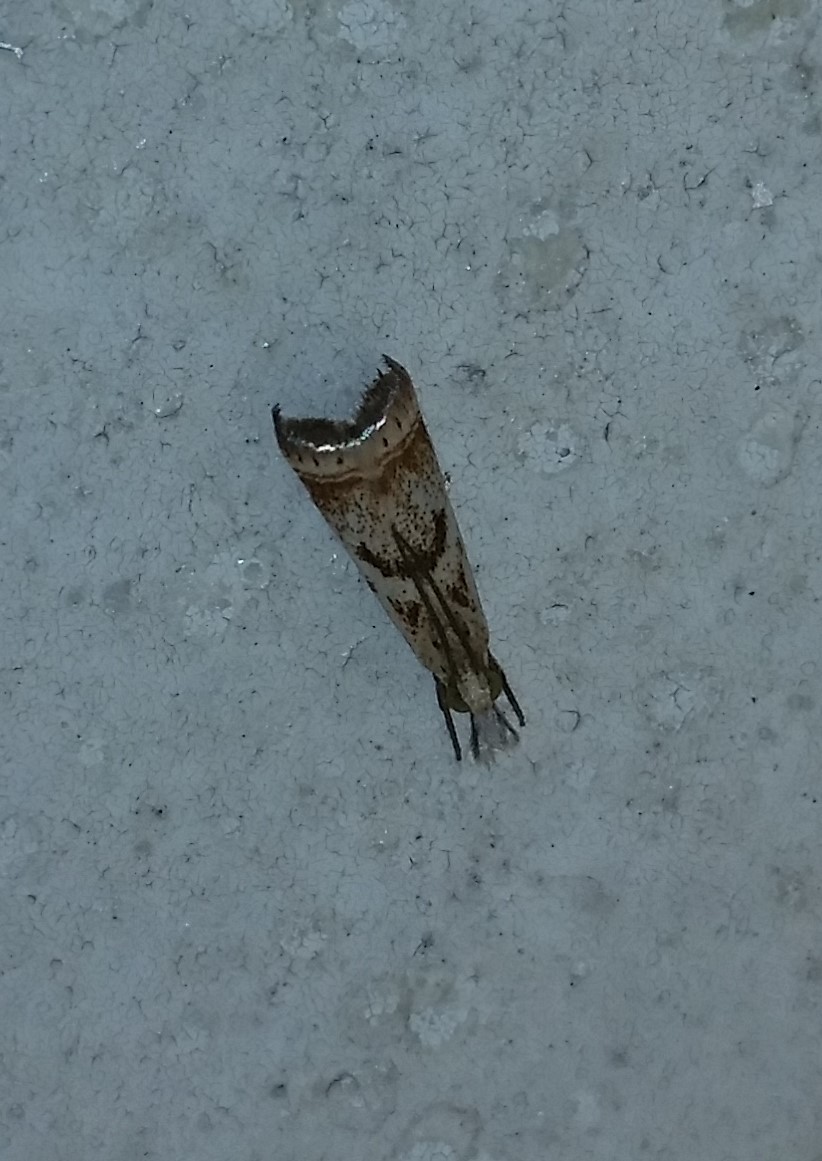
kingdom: Animalia
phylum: Arthropoda
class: Insecta
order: Lepidoptera
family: Crambidae
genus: Microcrambus
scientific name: Microcrambus elegans
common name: Elegant grass-veneer
